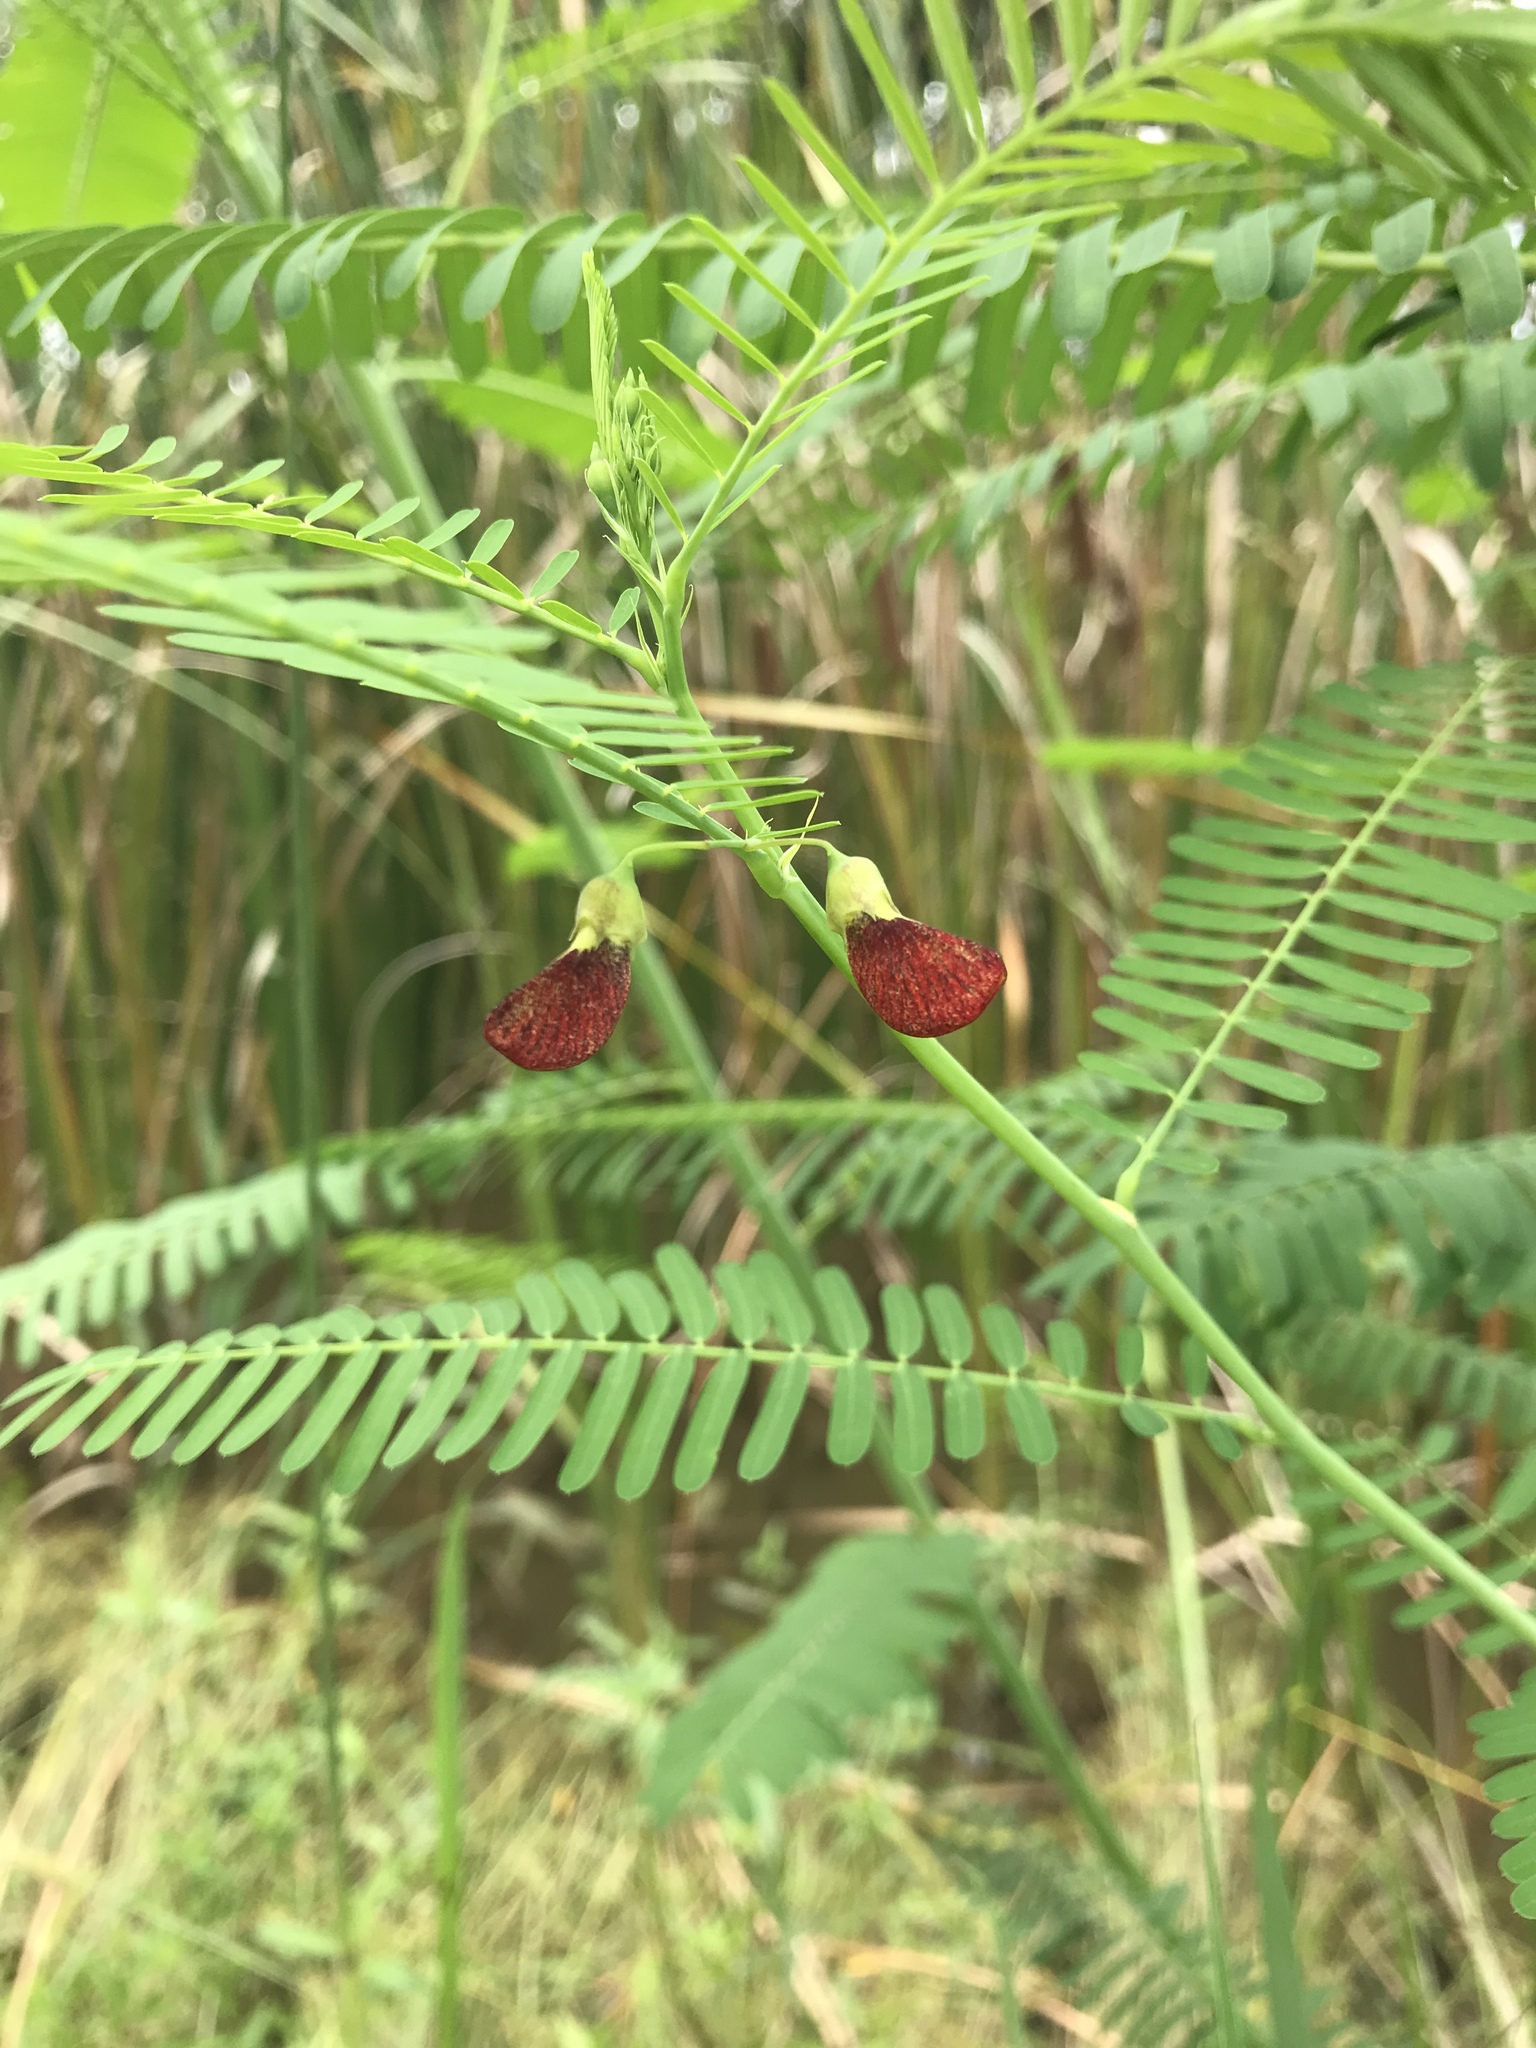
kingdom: Plantae
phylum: Tracheophyta
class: Magnoliopsida
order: Fabales
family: Fabaceae
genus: Sesbania
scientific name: Sesbania herbacea
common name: Bigpod sesbania
